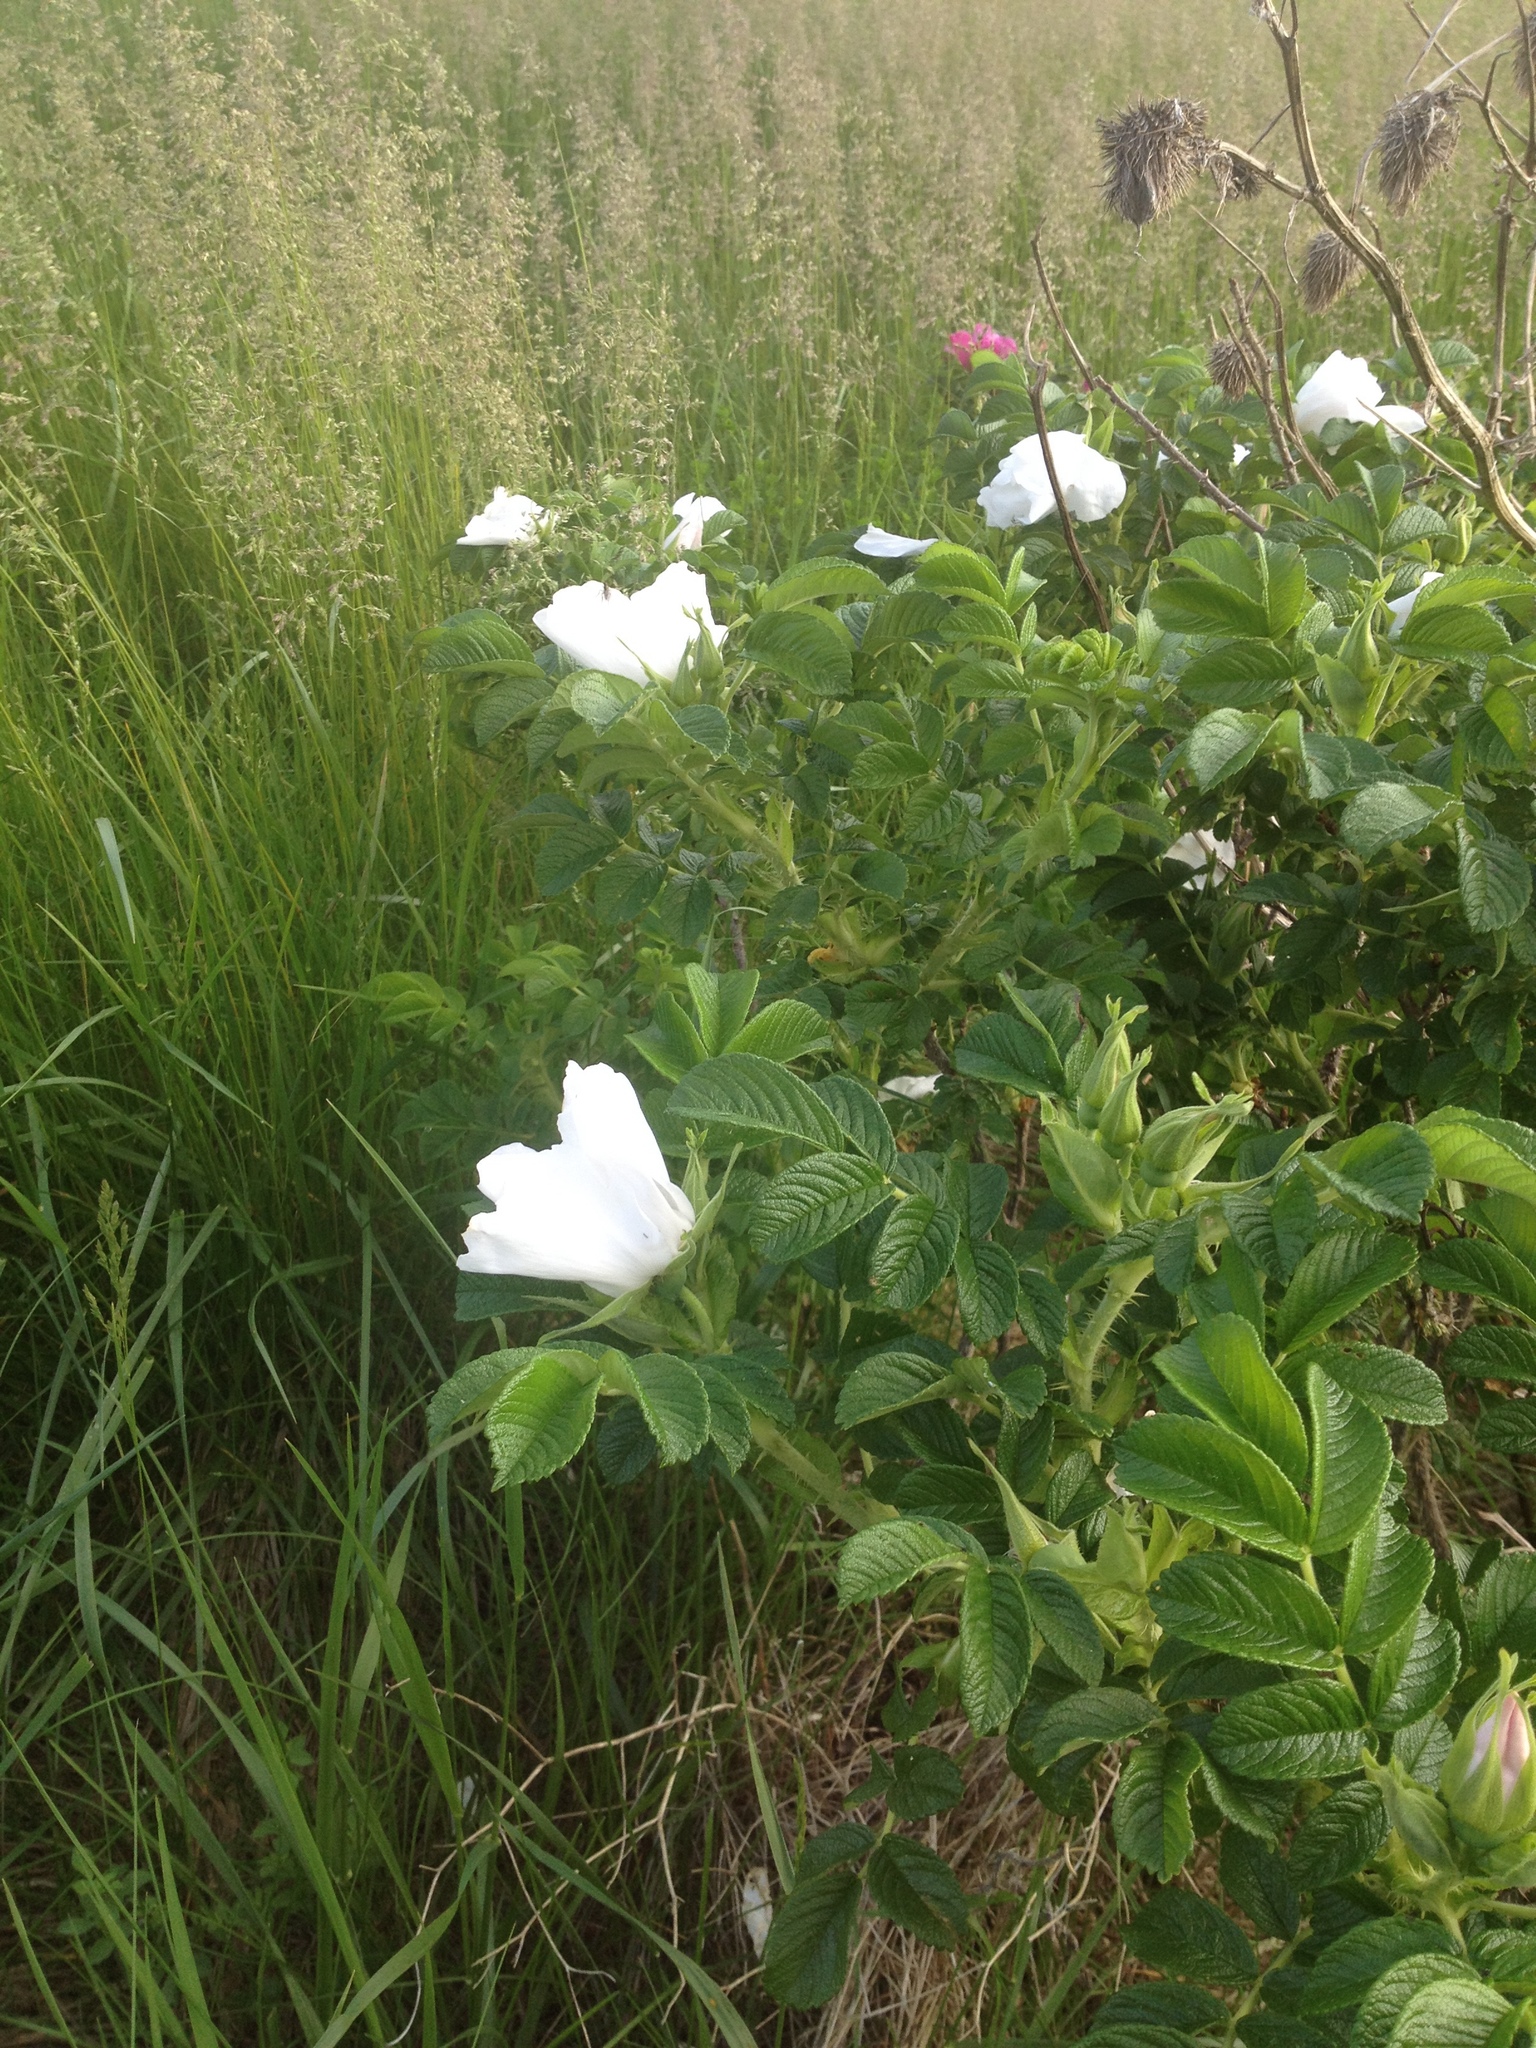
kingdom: Plantae
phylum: Tracheophyta
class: Magnoliopsida
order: Rosales
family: Rosaceae
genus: Rosa
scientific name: Rosa rugosa
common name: Japanese rose
